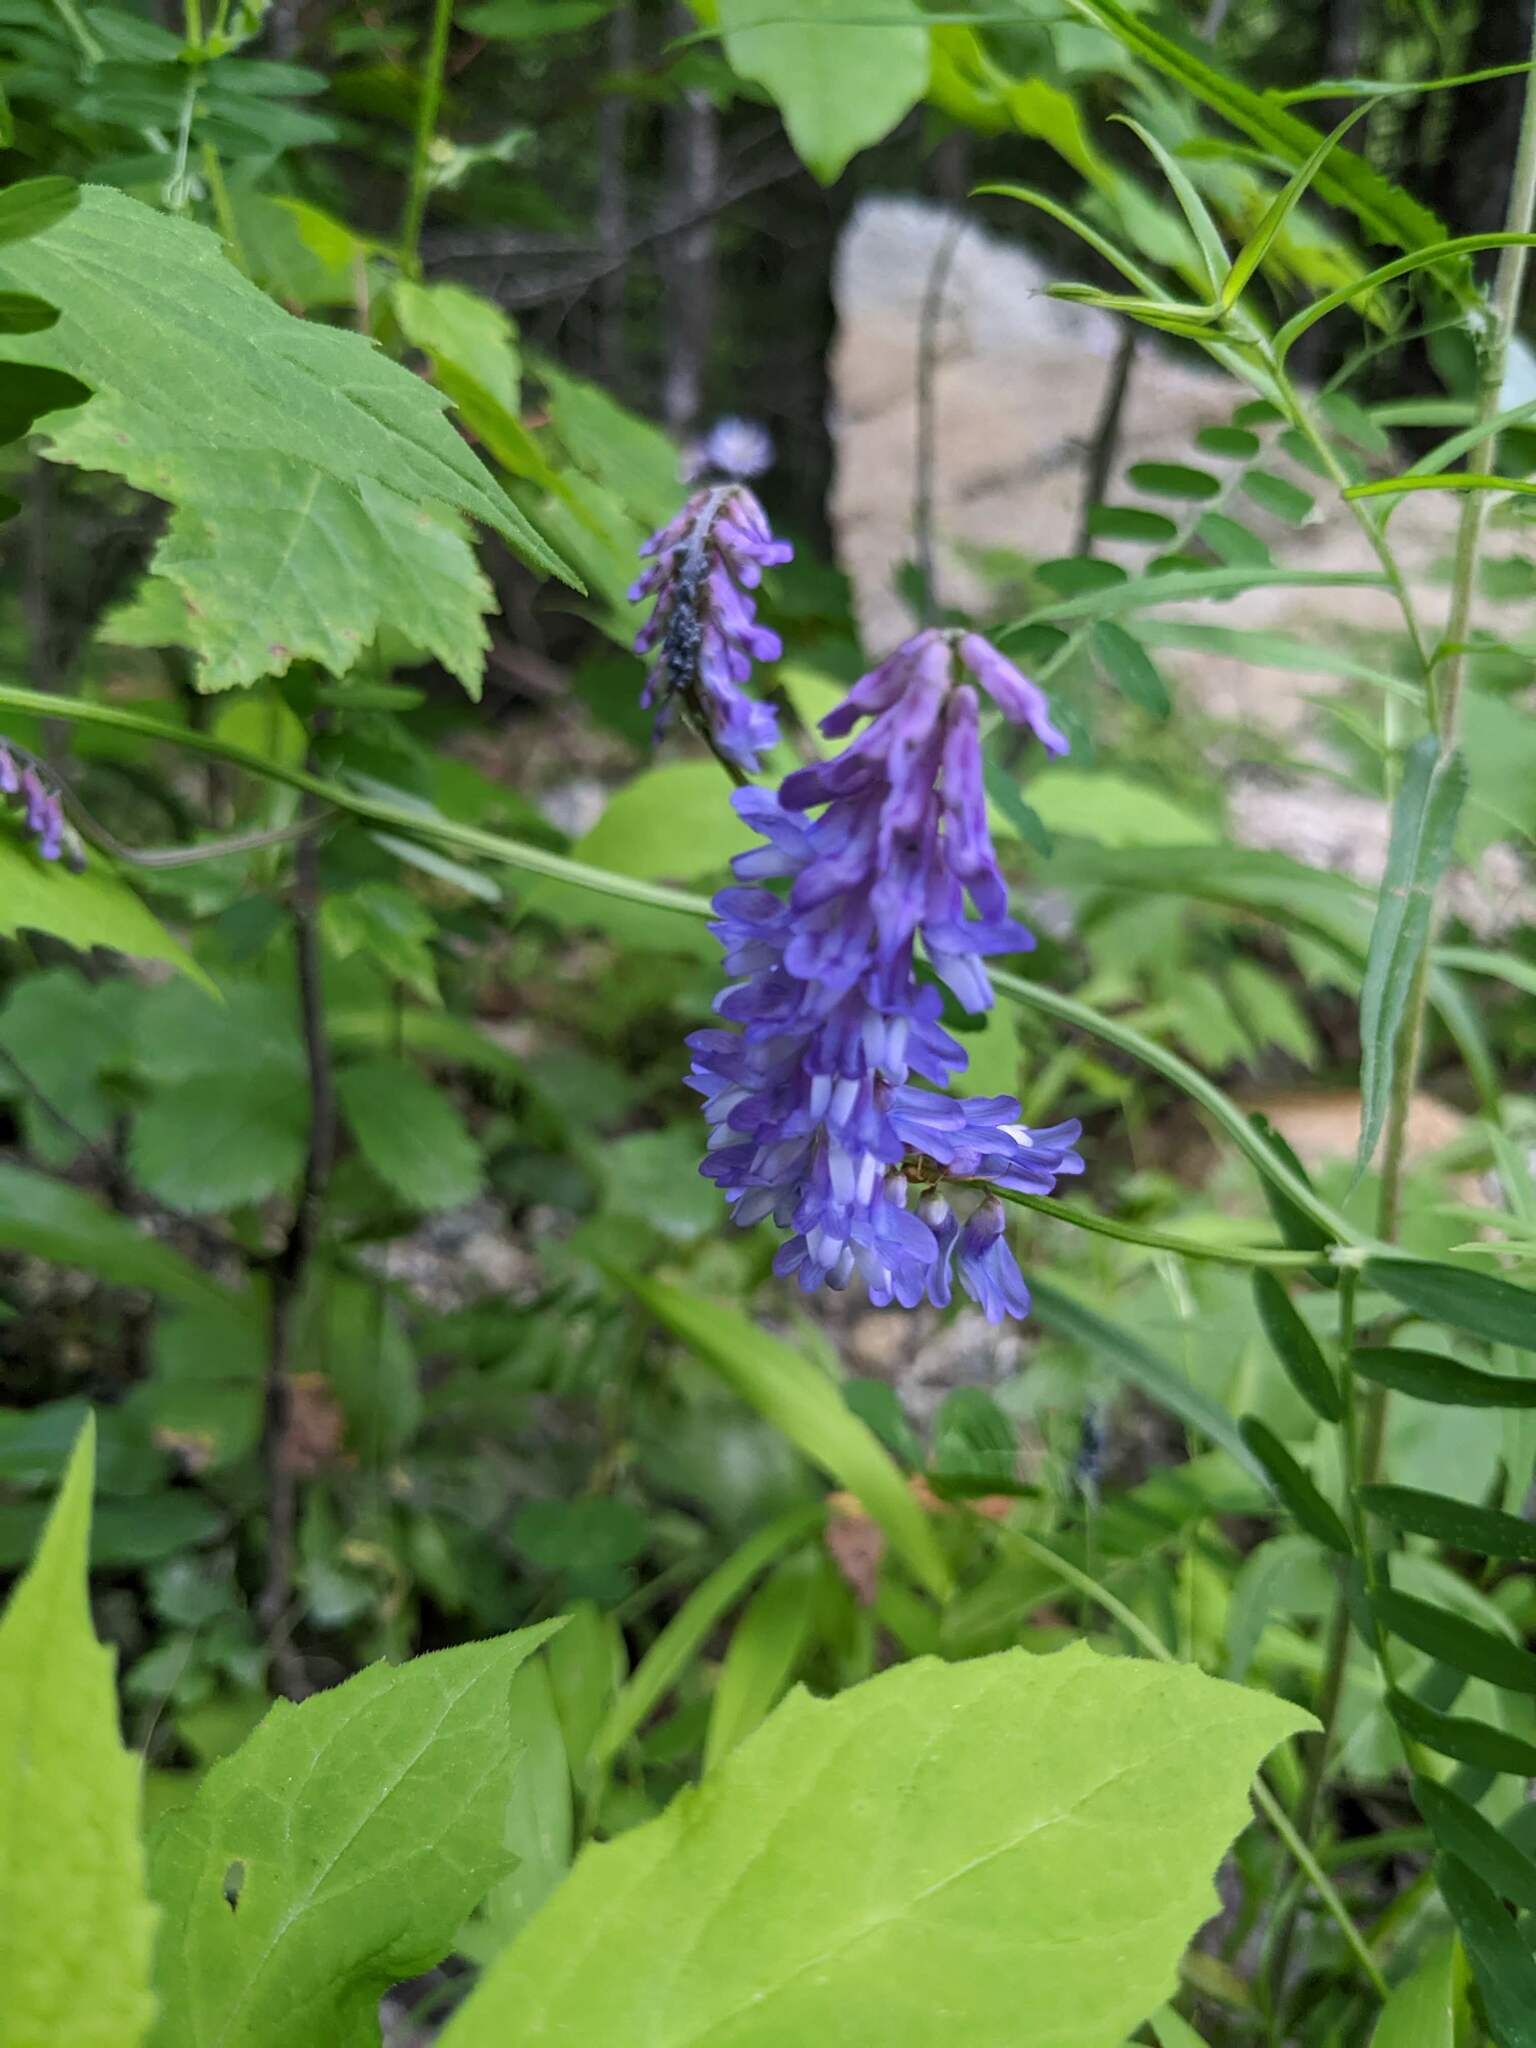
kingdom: Plantae
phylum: Tracheophyta
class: Magnoliopsida
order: Fabales
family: Fabaceae
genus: Vicia
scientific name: Vicia cracca
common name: Bird vetch
